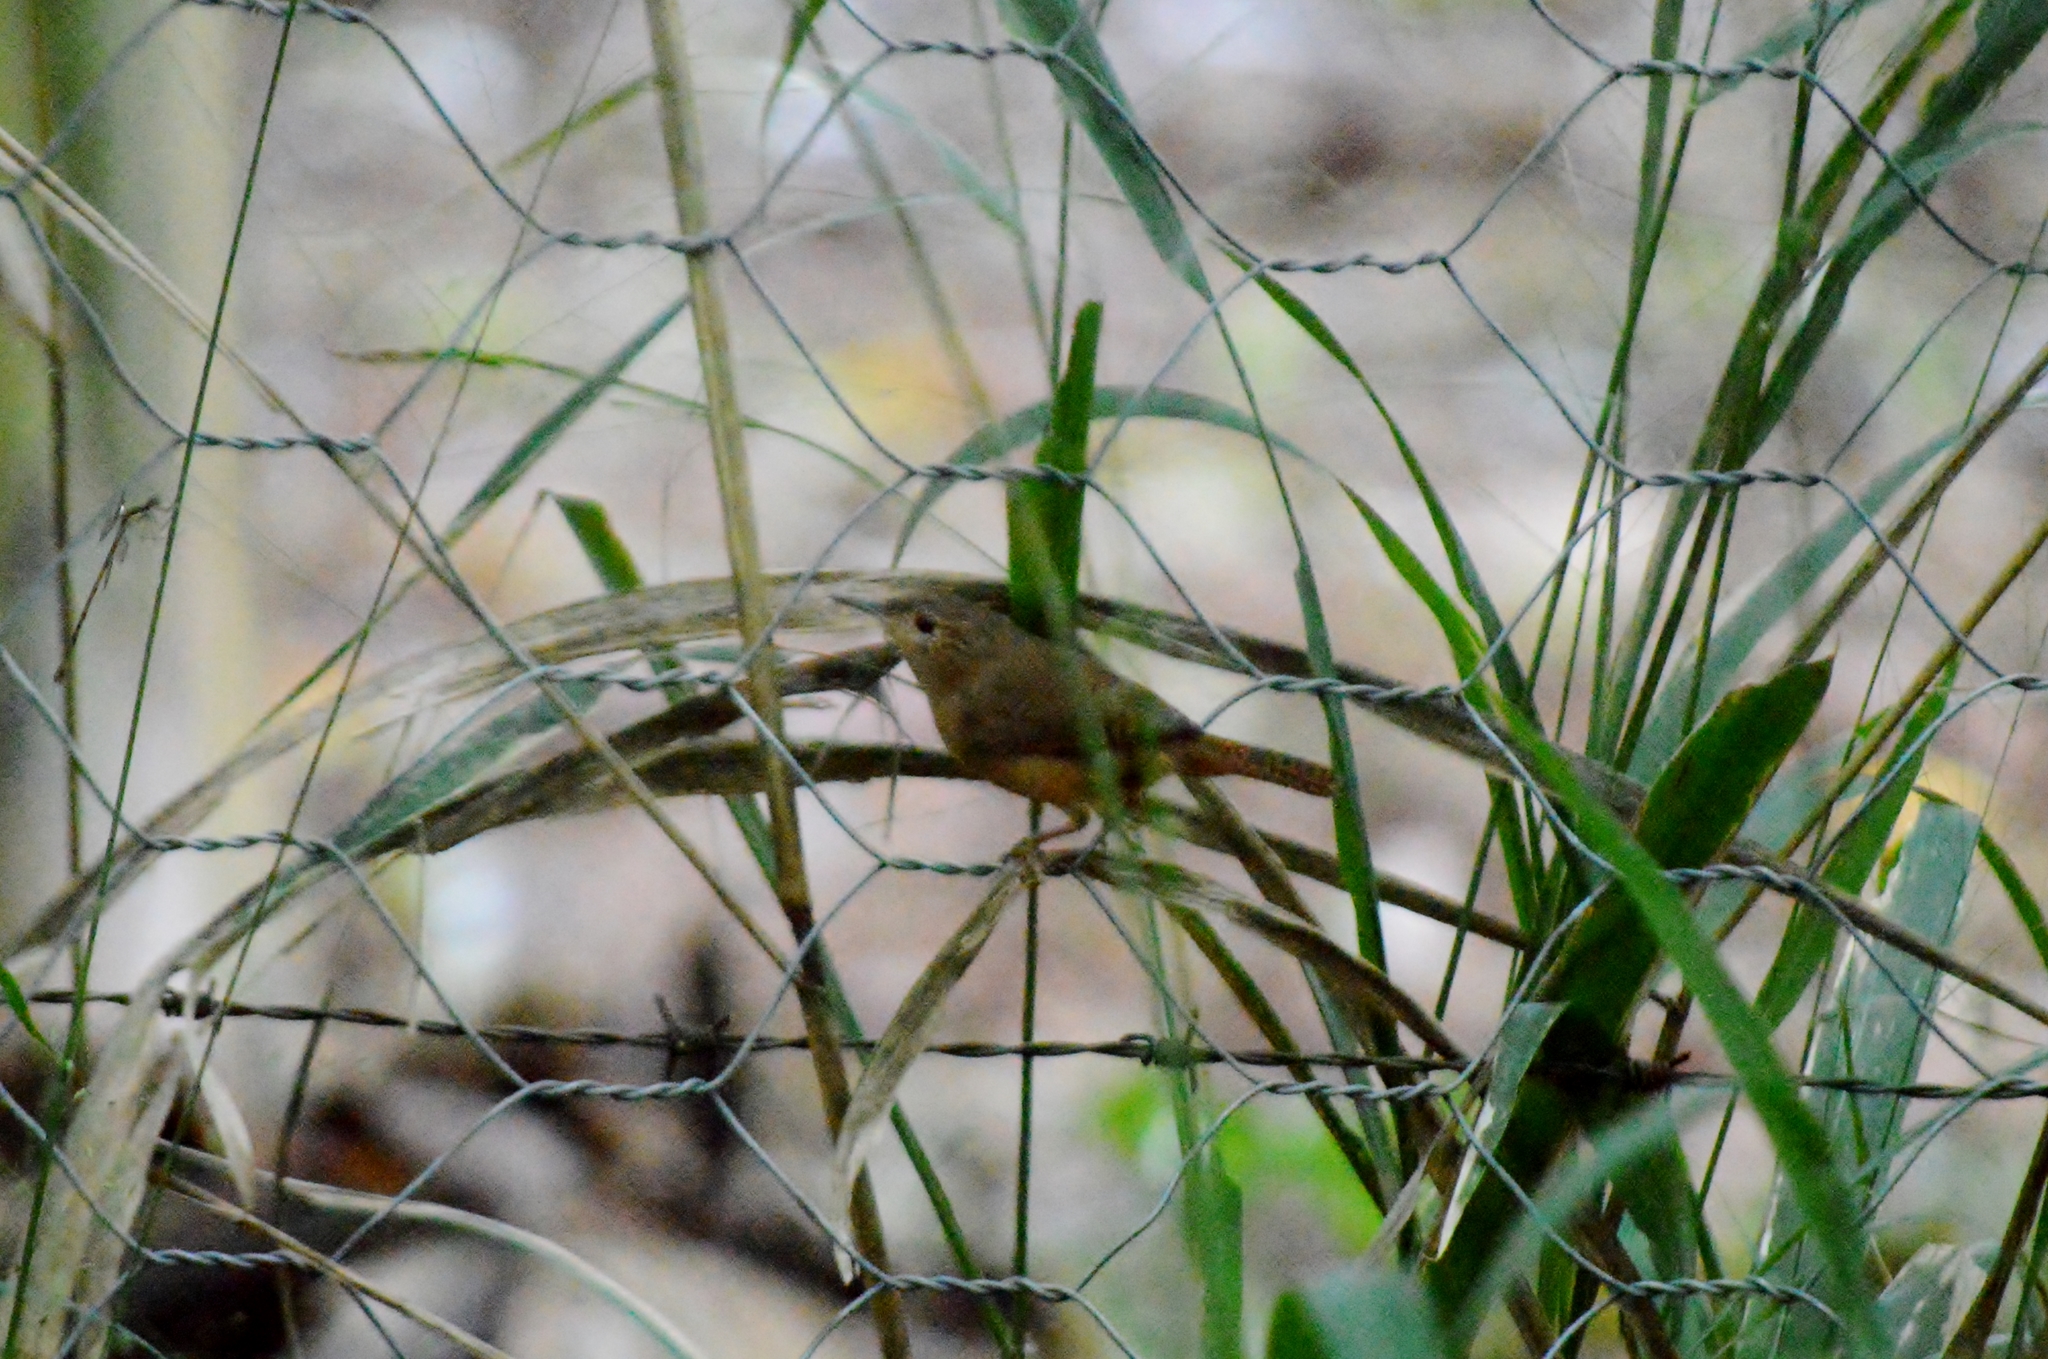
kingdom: Animalia
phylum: Chordata
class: Aves
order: Passeriformes
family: Troglodytidae
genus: Troglodytes
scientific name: Troglodytes aedon
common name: House wren
